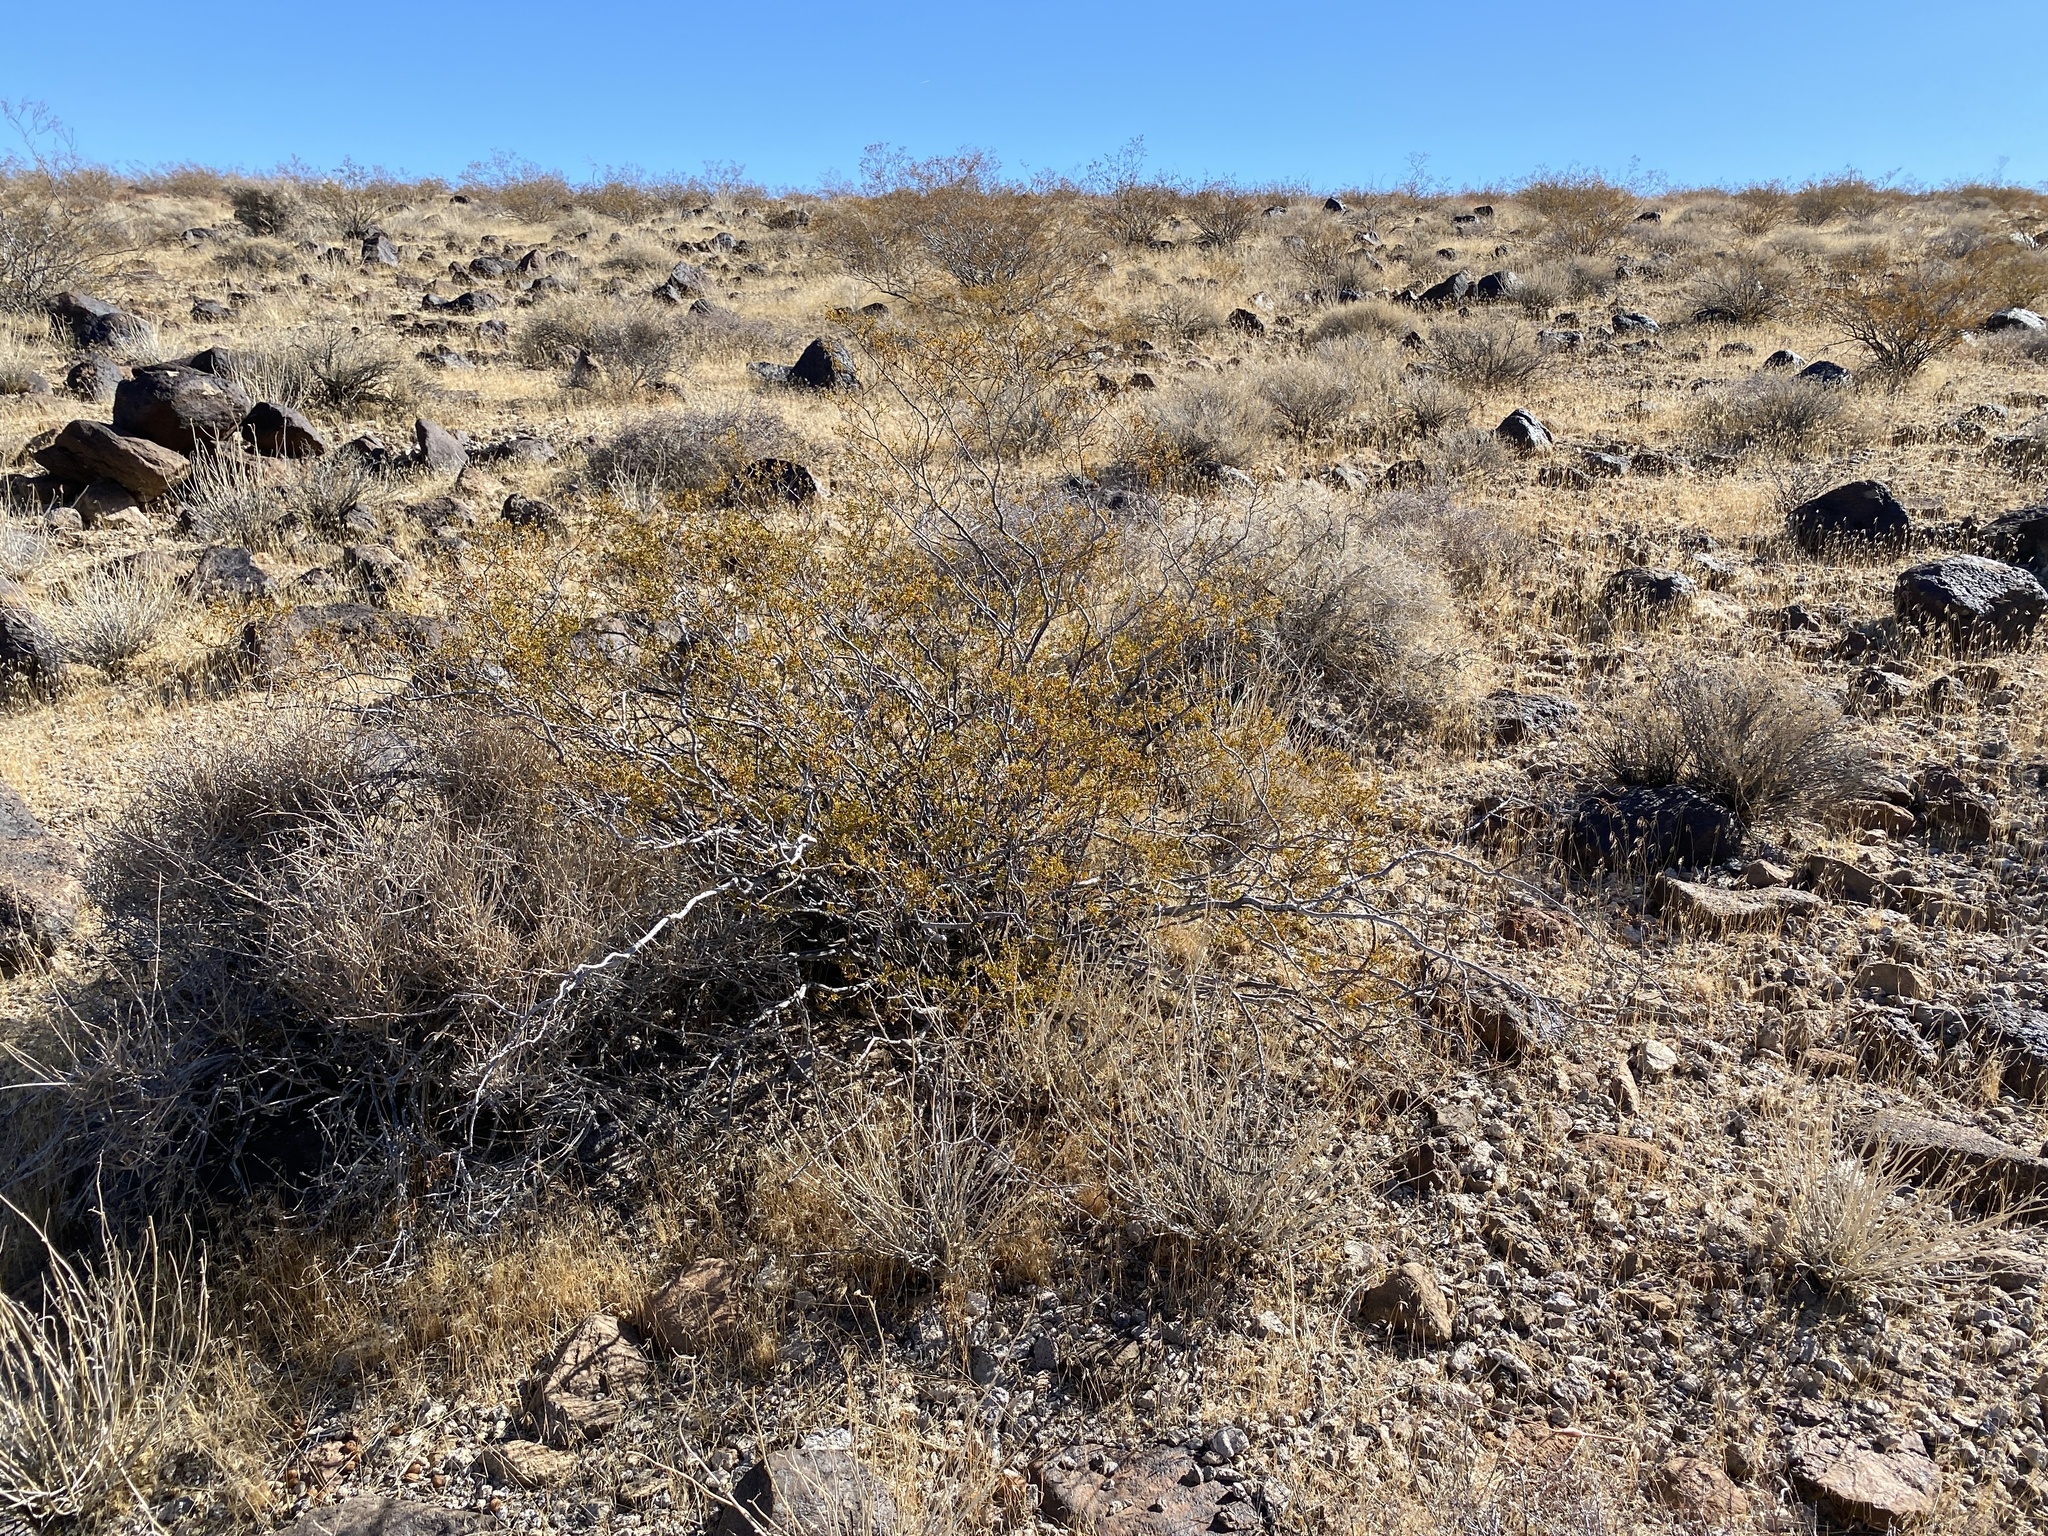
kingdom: Plantae
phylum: Tracheophyta
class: Magnoliopsida
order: Zygophyllales
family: Zygophyllaceae
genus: Larrea
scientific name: Larrea tridentata
